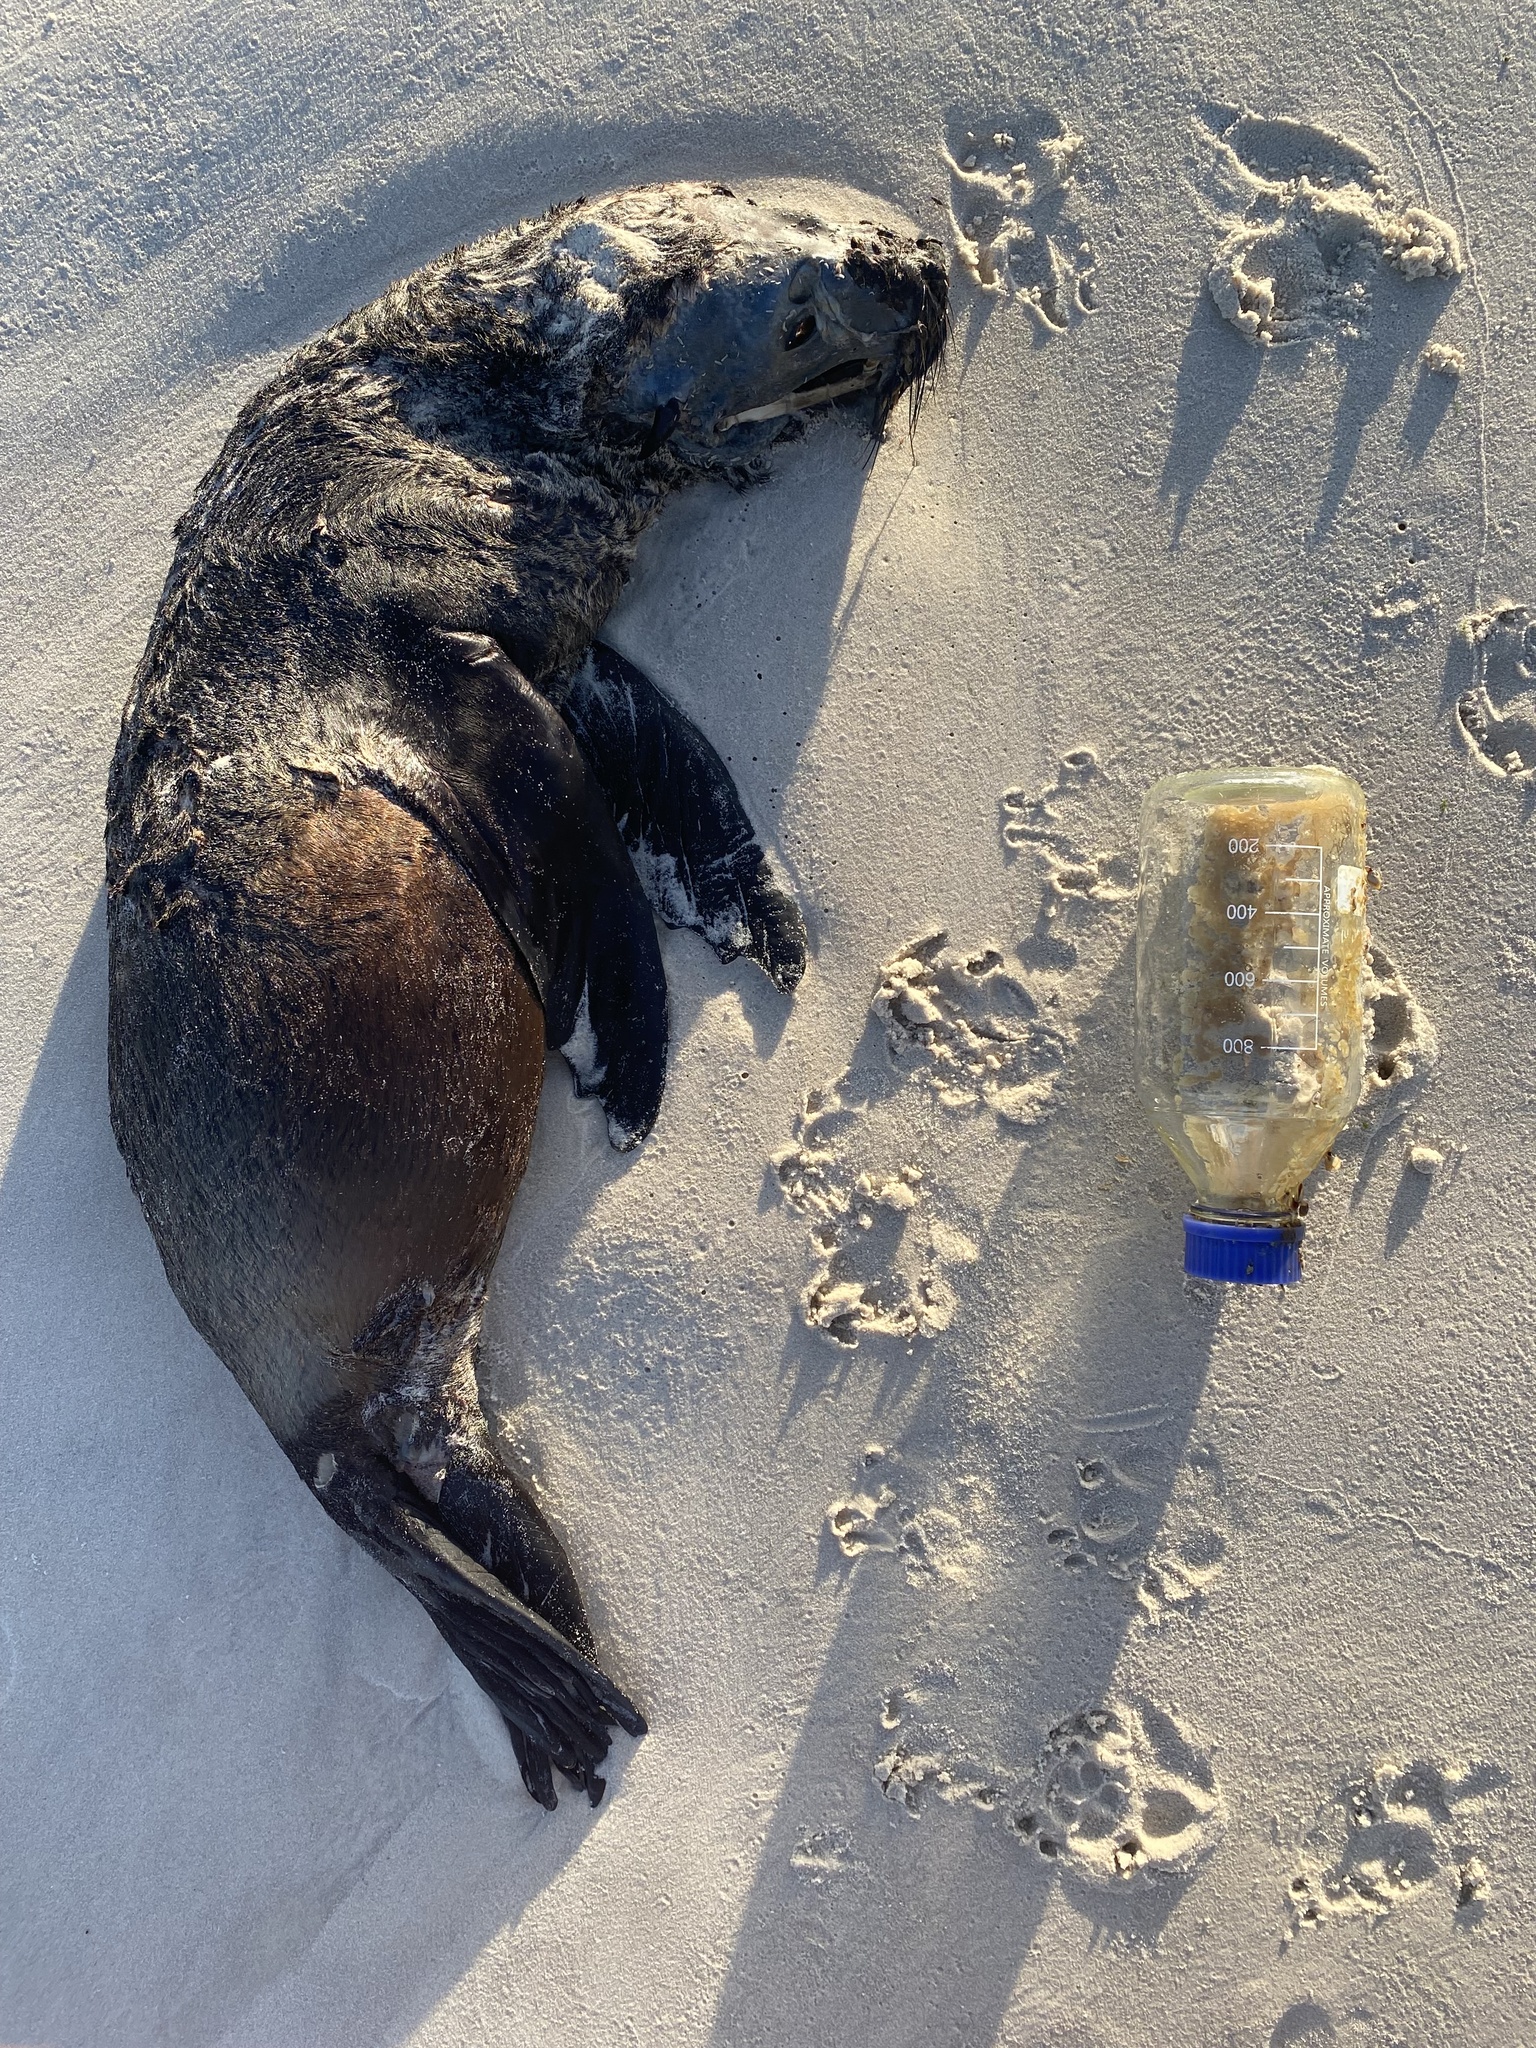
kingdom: Animalia
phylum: Chordata
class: Mammalia
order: Carnivora
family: Otariidae
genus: Arctocephalus
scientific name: Arctocephalus pusillus
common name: Brown fur seal
